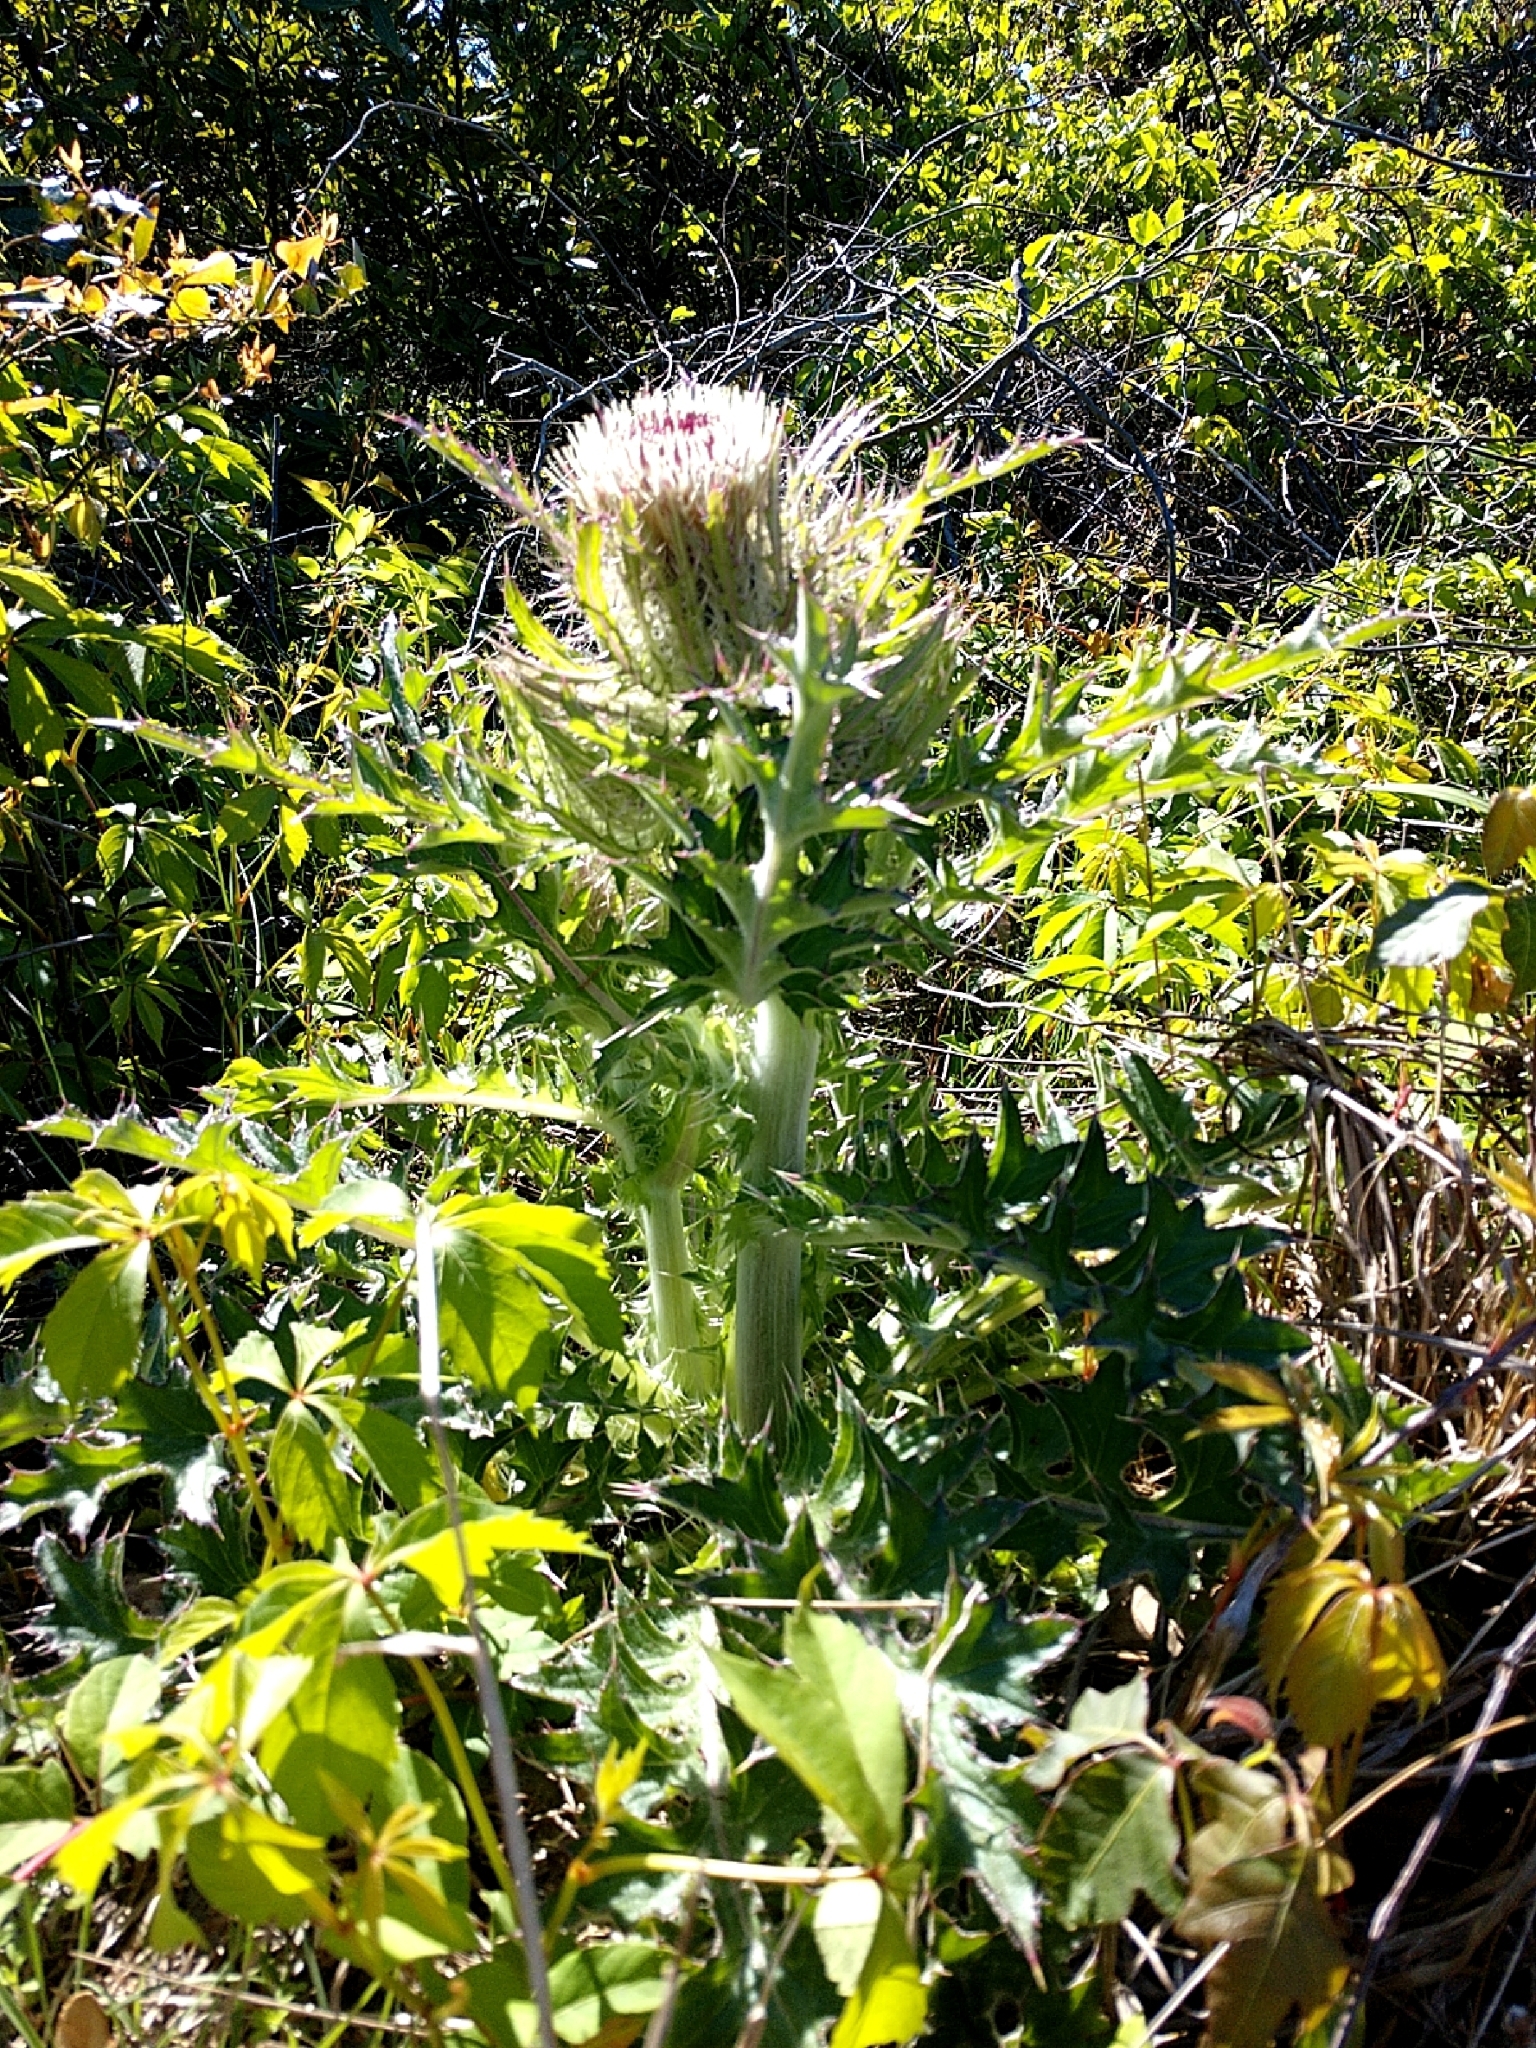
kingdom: Plantae
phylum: Tracheophyta
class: Magnoliopsida
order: Asterales
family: Asteraceae
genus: Cirsium
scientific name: Cirsium horridulum
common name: Bristly thistle
